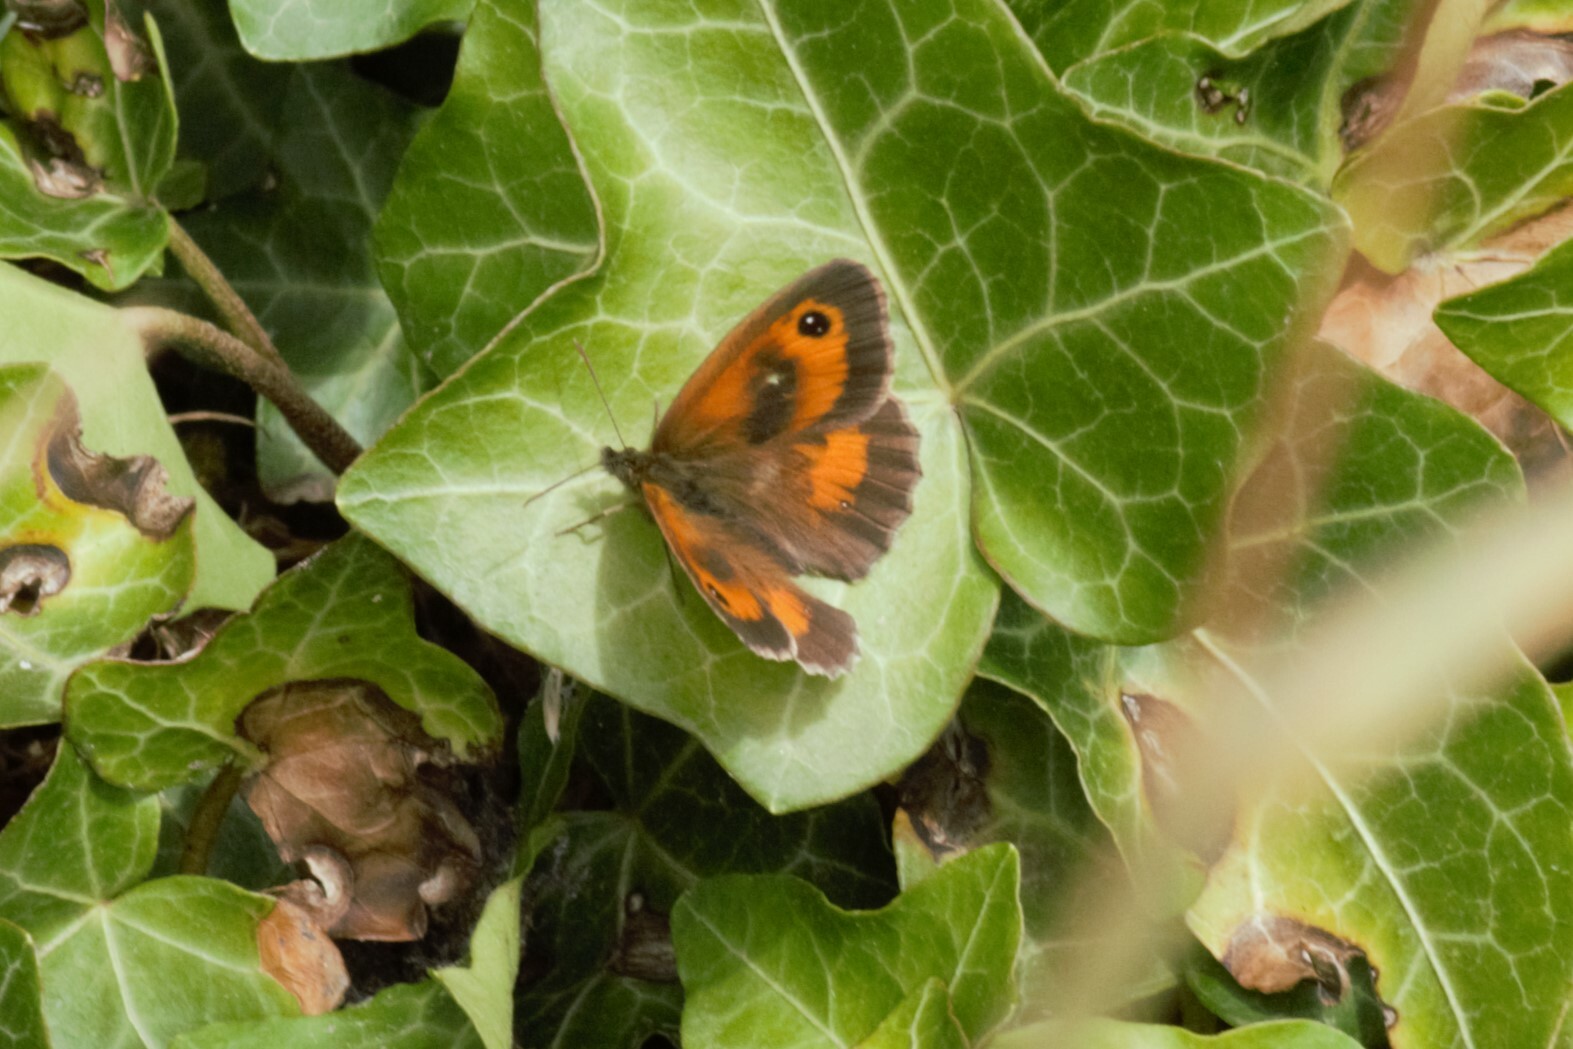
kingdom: Animalia
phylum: Arthropoda
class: Insecta
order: Lepidoptera
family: Nymphalidae
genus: Pyronia
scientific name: Pyronia tithonus
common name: Gatekeeper
